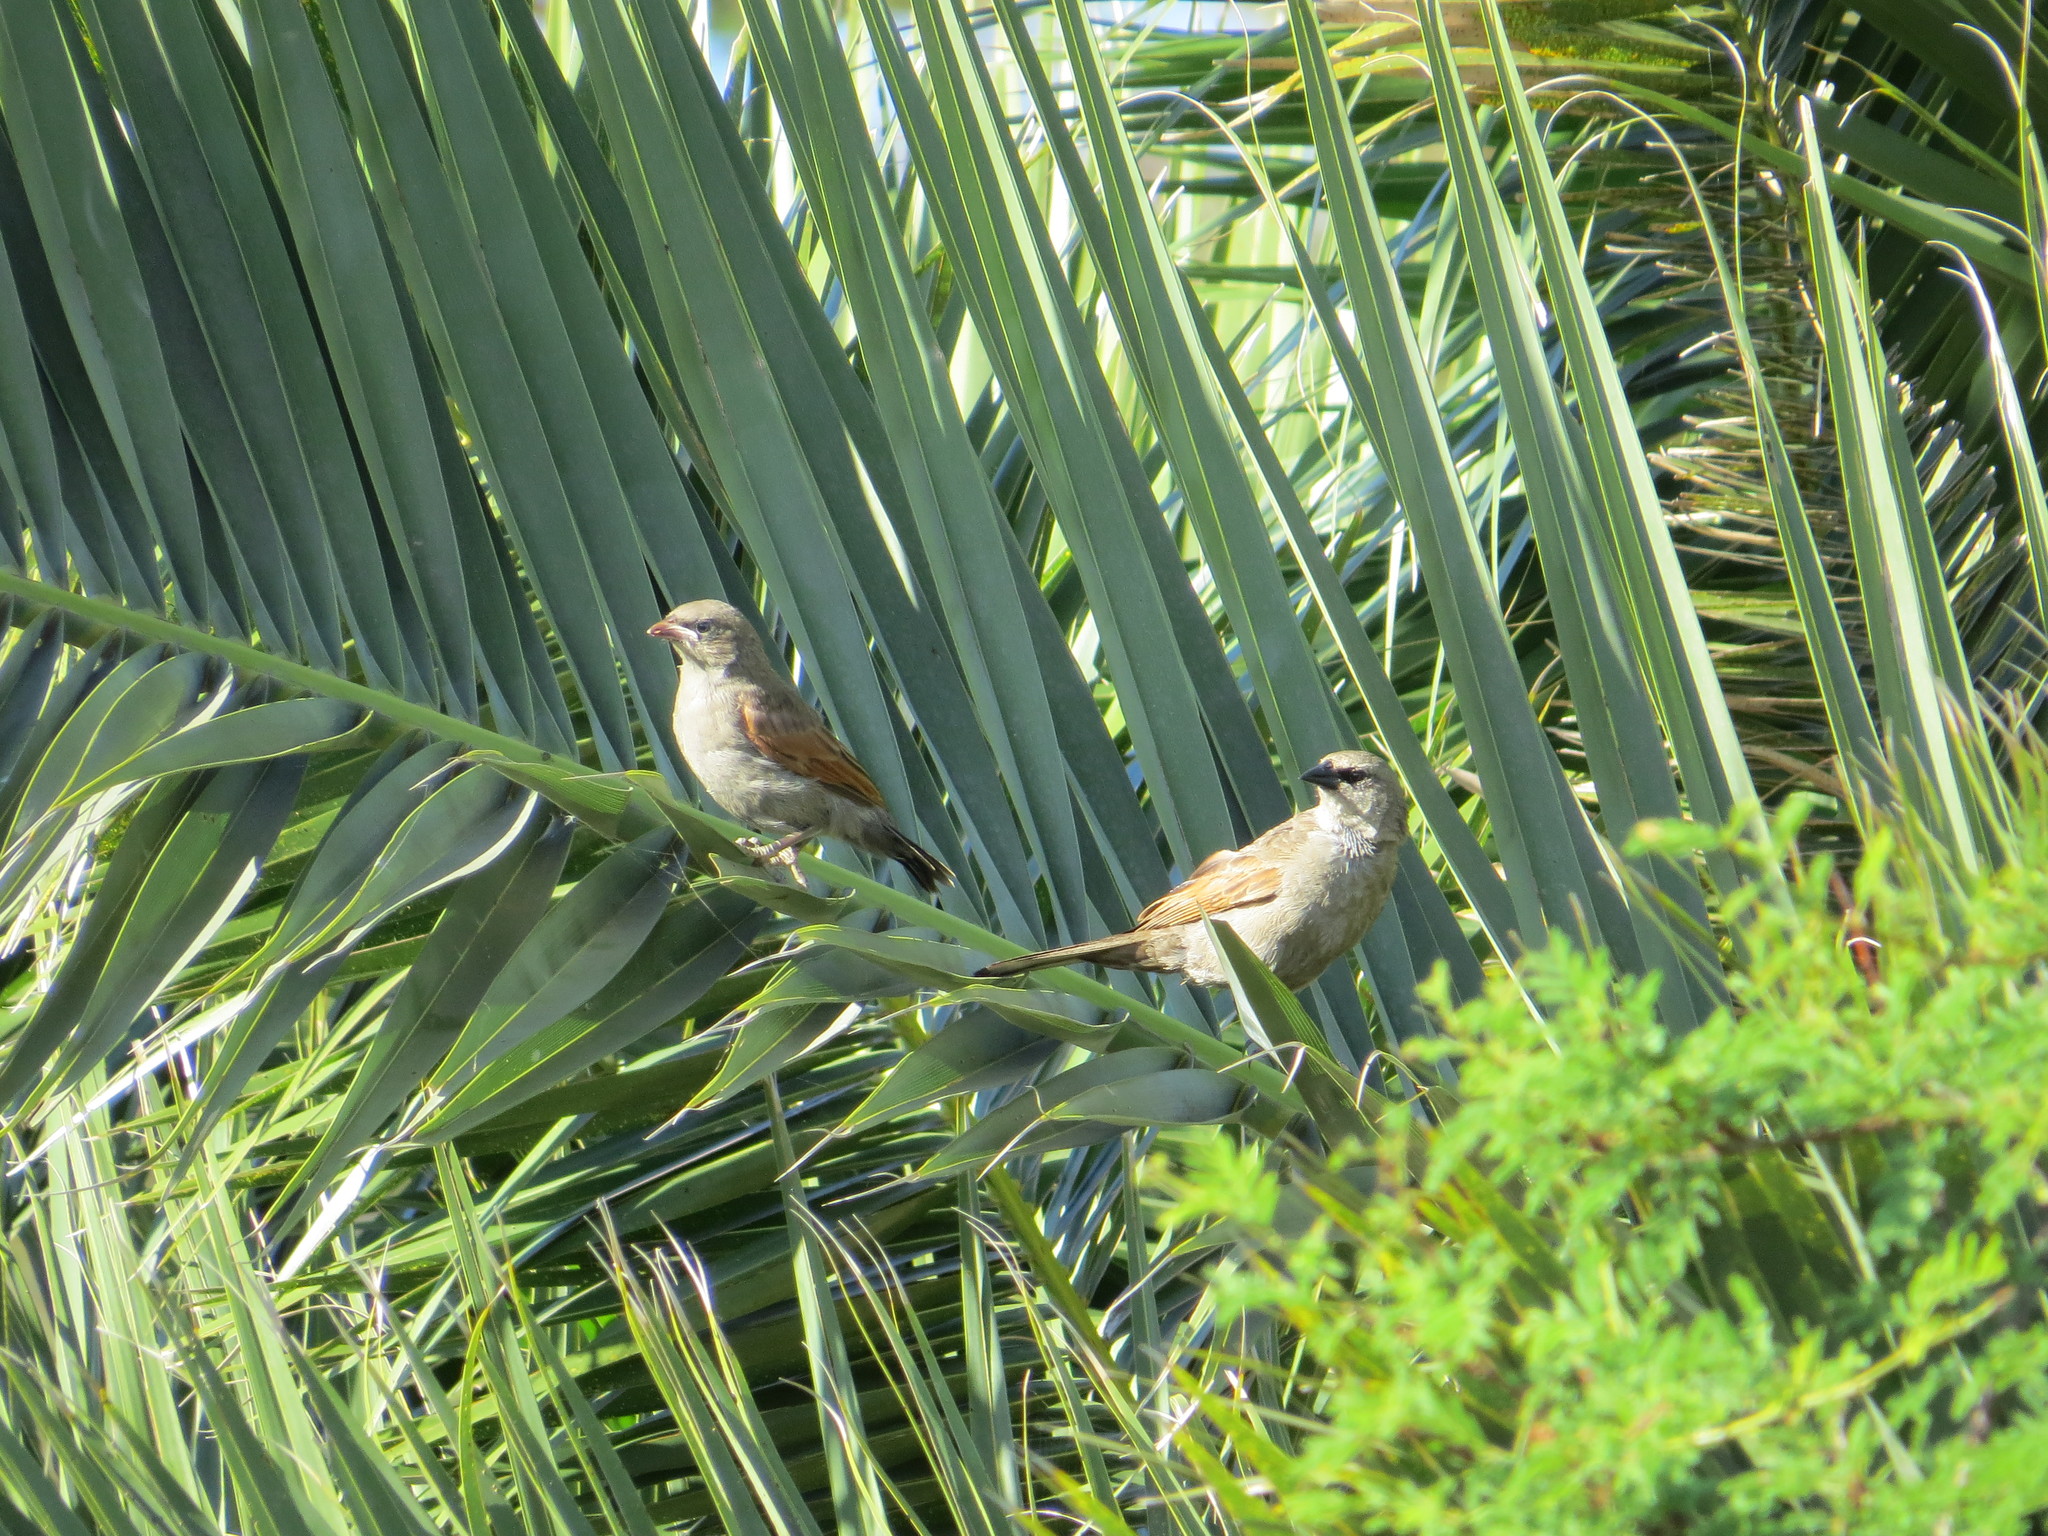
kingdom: Animalia
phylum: Chordata
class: Aves
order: Passeriformes
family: Icteridae
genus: Agelaioides
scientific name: Agelaioides badius
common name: Baywing
